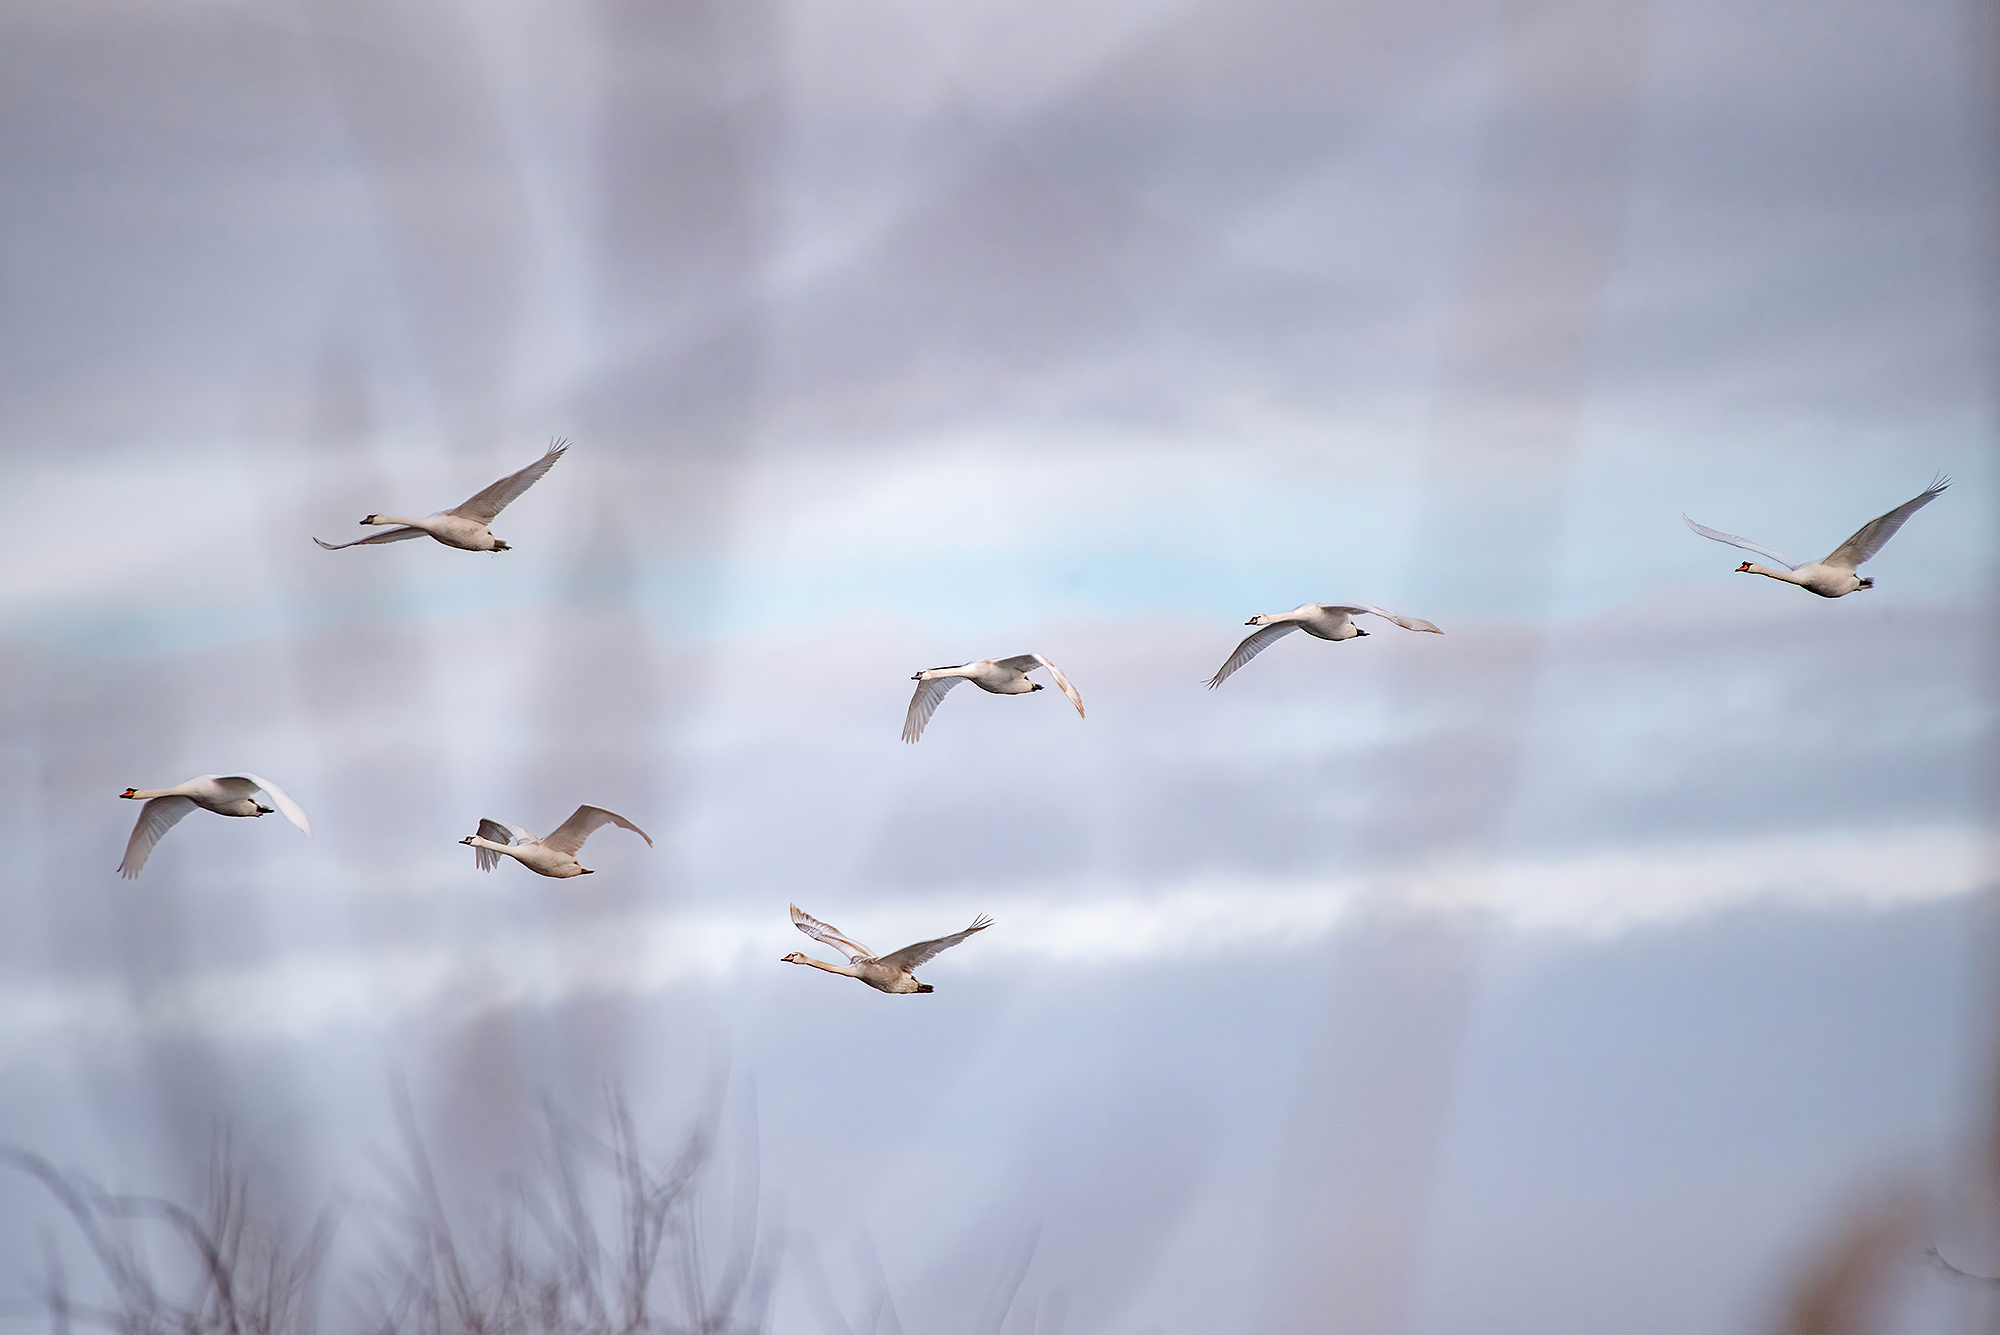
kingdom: Animalia
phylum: Chordata
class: Aves
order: Anseriformes
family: Anatidae
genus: Cygnus
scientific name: Cygnus olor
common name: Mute swan
